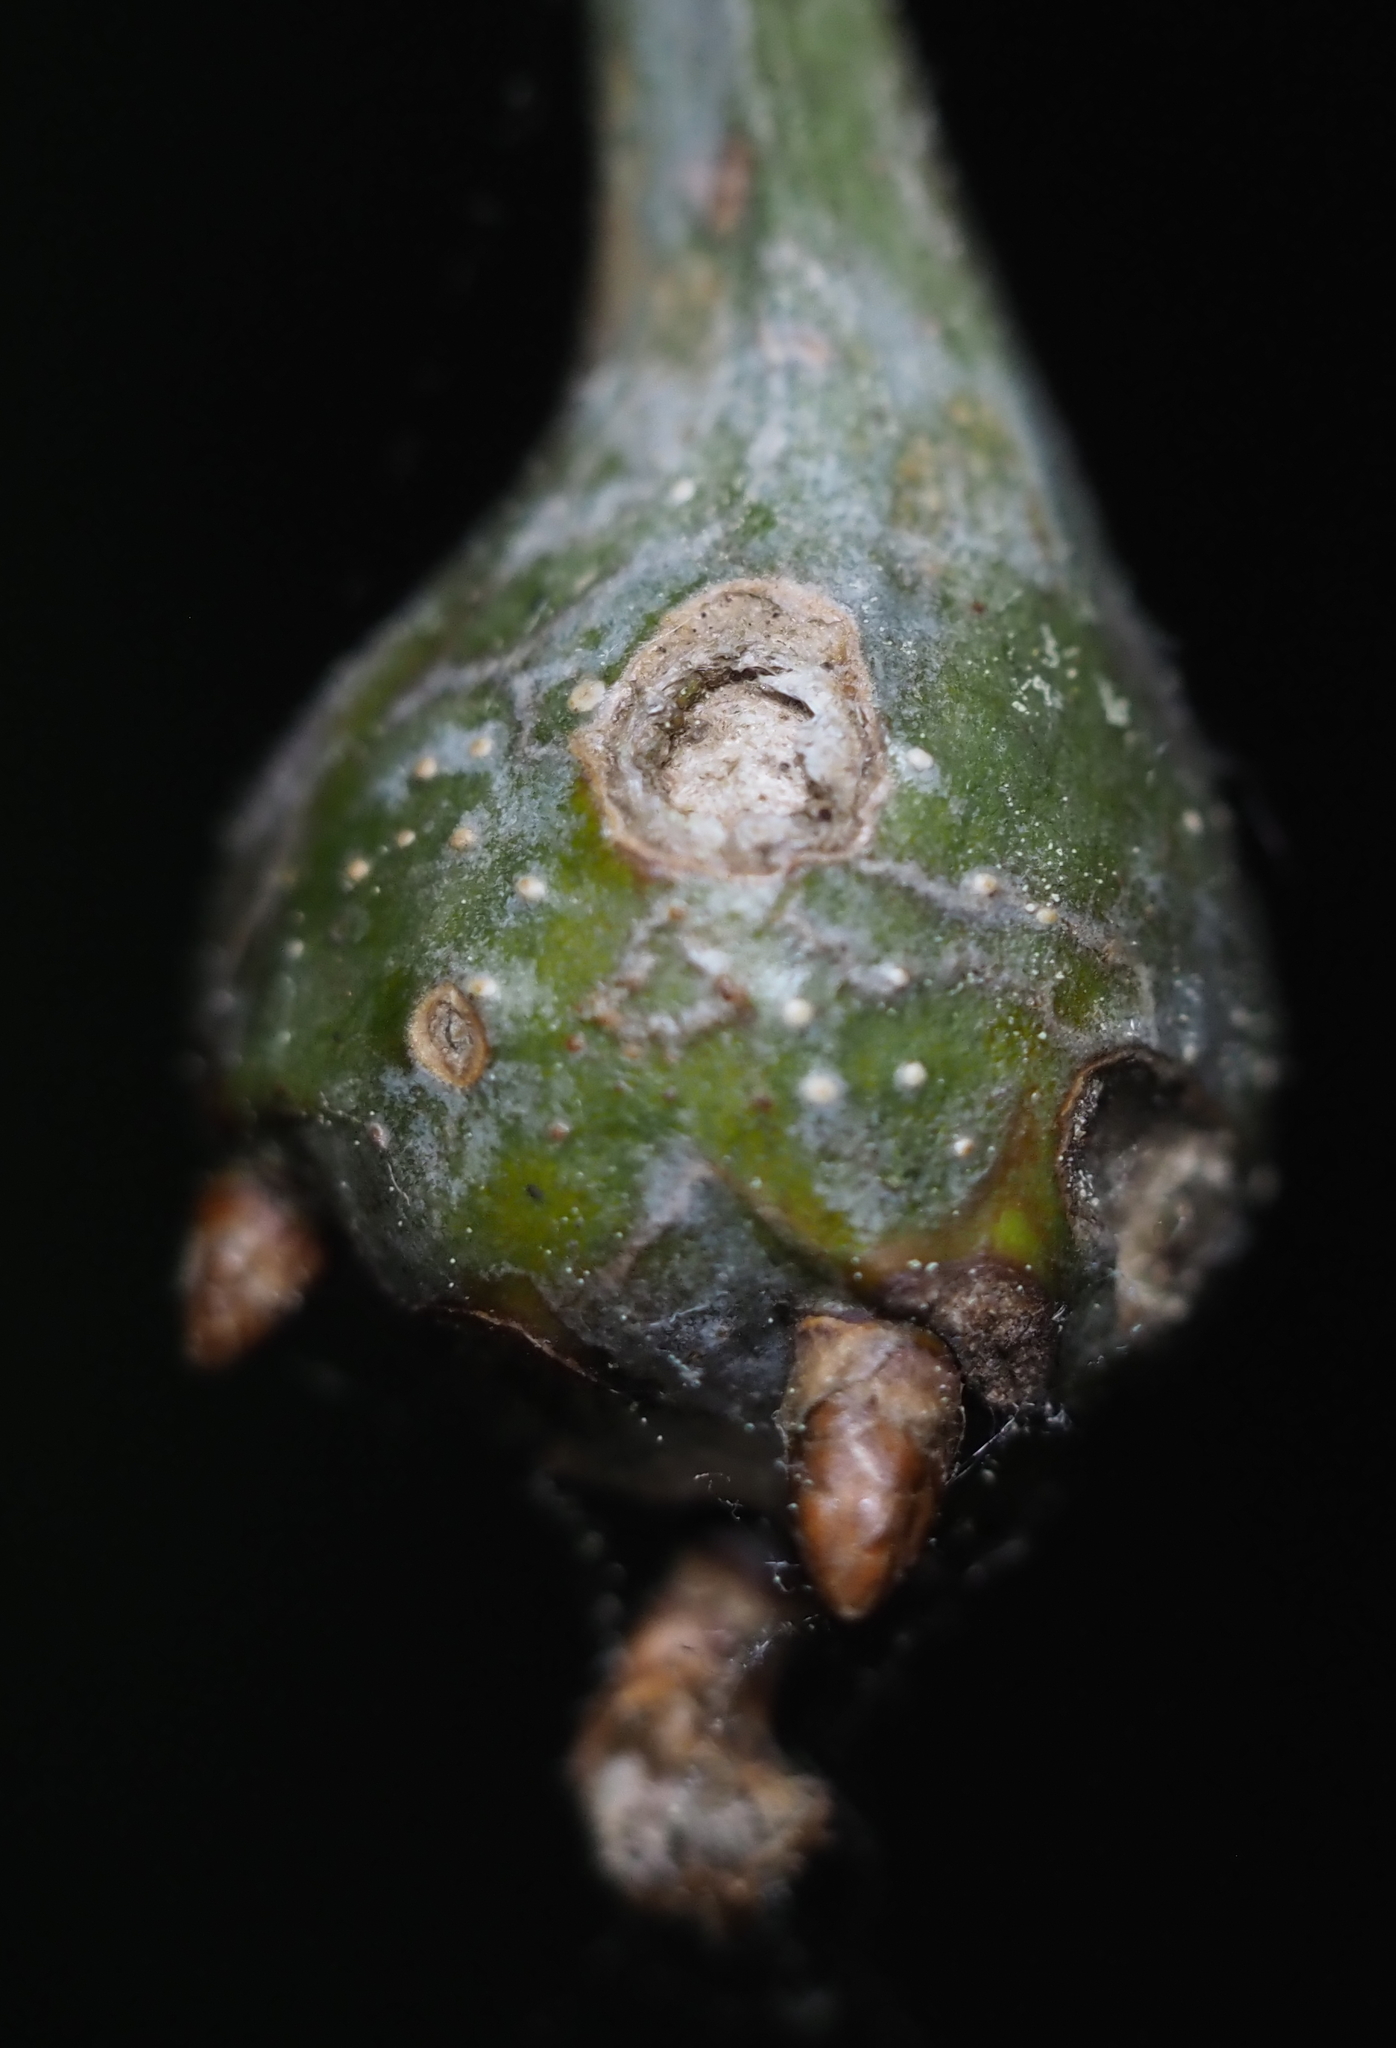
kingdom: Animalia
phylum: Arthropoda
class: Insecta
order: Hymenoptera
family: Cynipidae
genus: Callirhytis
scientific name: Callirhytis clavula
